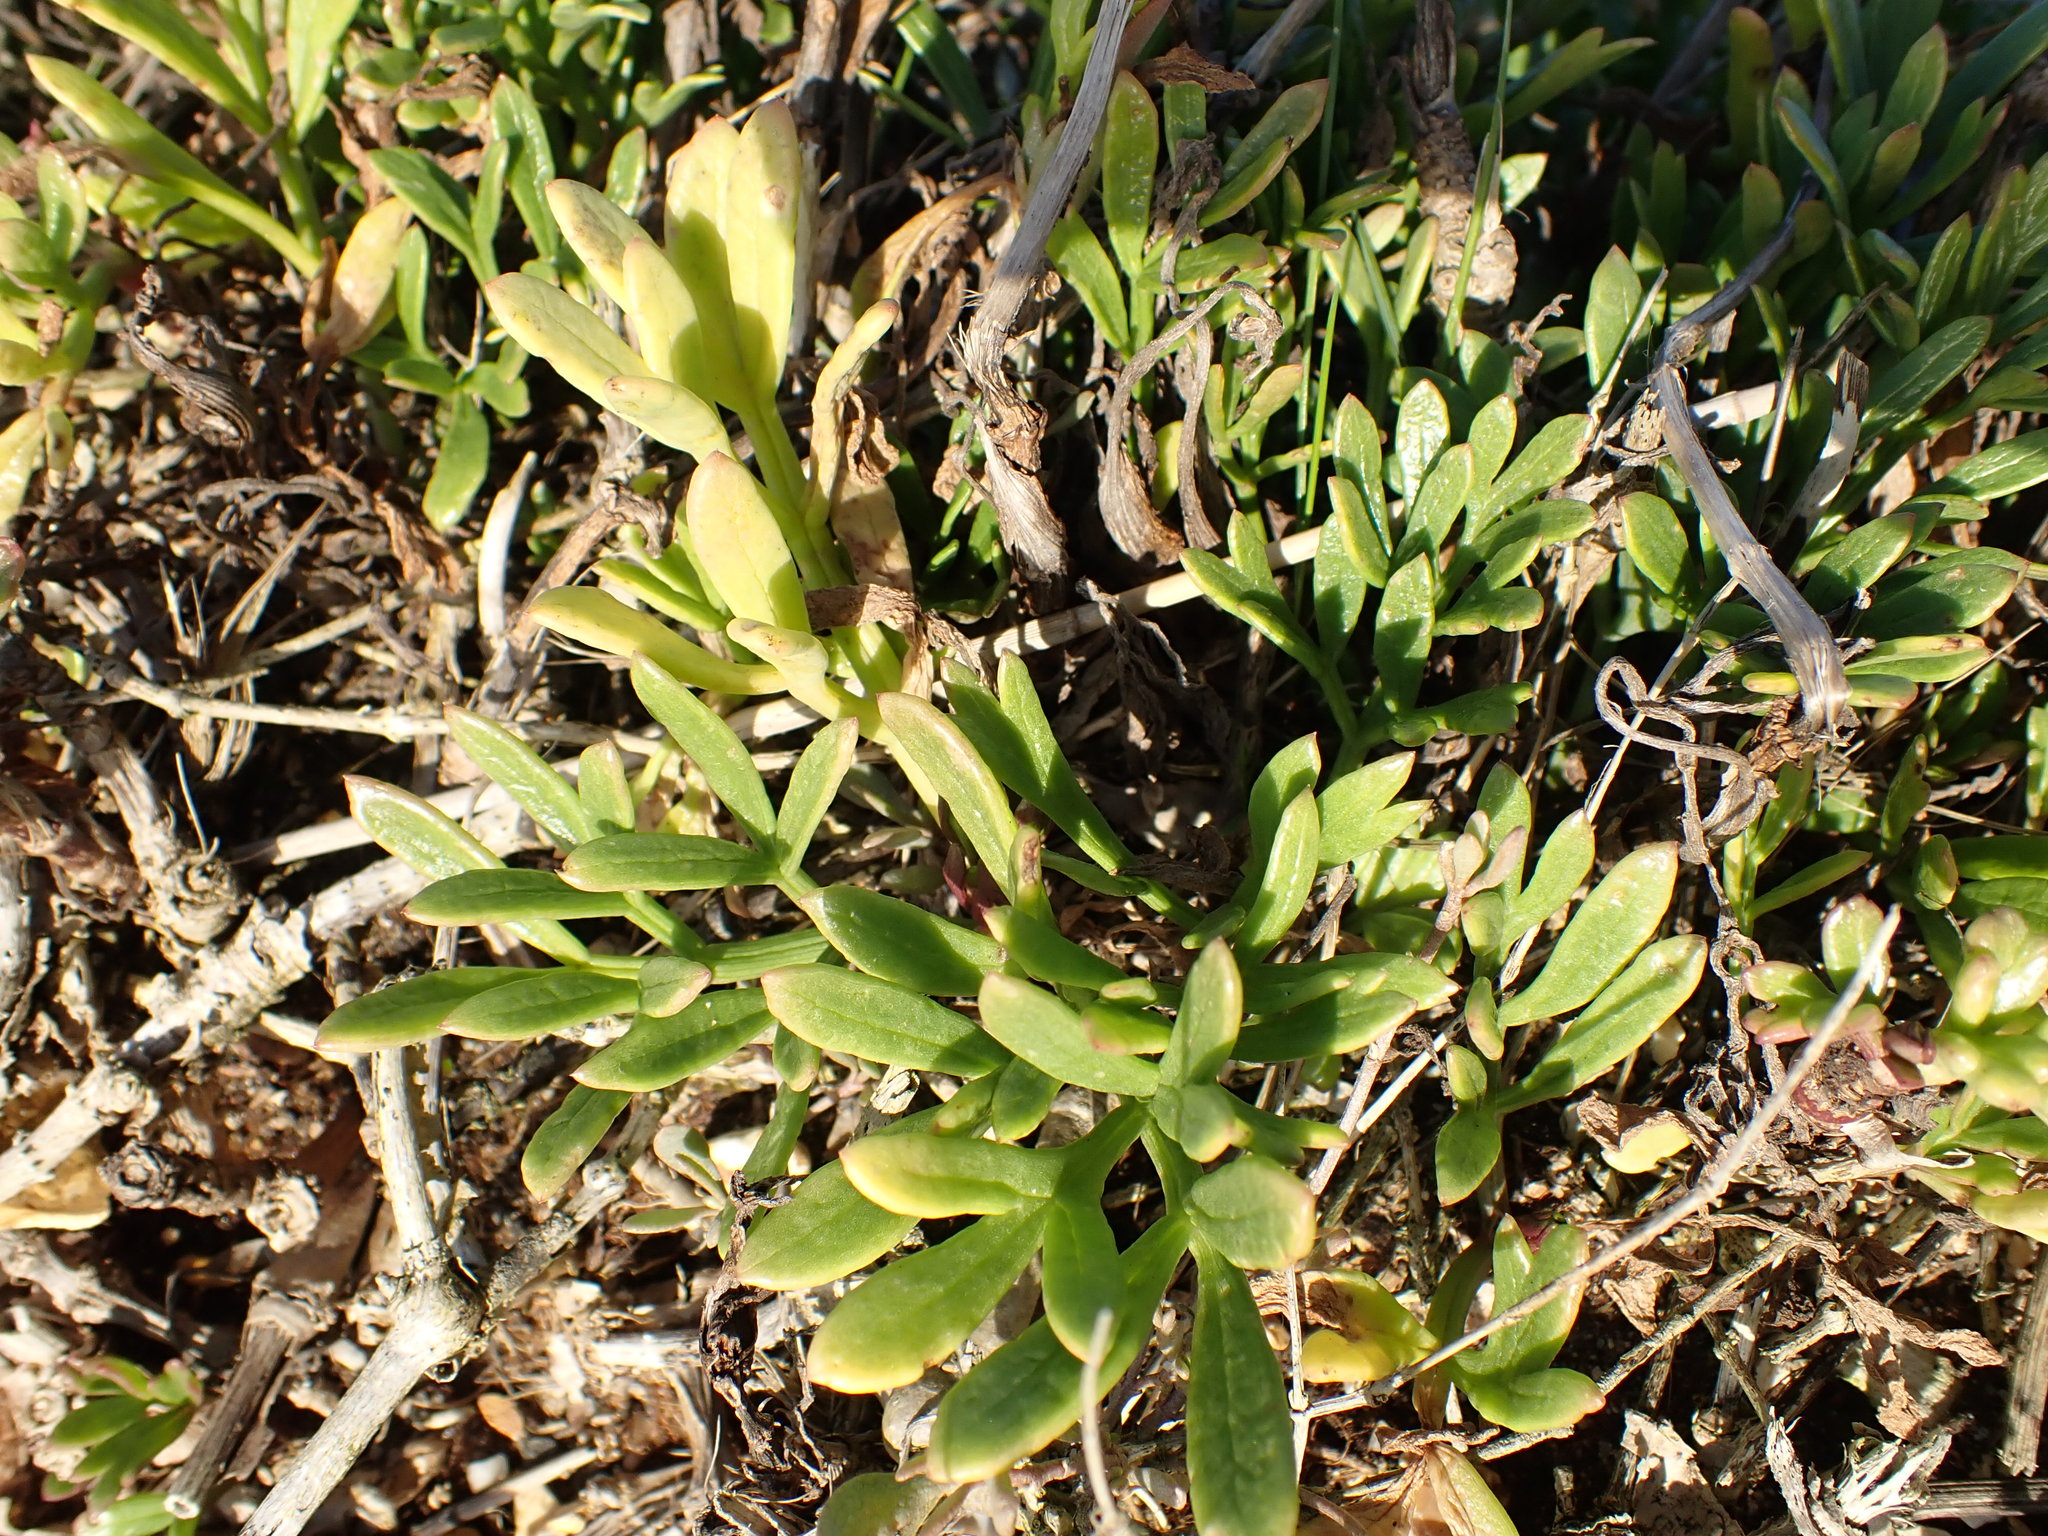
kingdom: Plantae
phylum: Tracheophyta
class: Magnoliopsida
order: Apiales
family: Apiaceae
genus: Crithmum
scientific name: Crithmum maritimum
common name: Rock samphire
